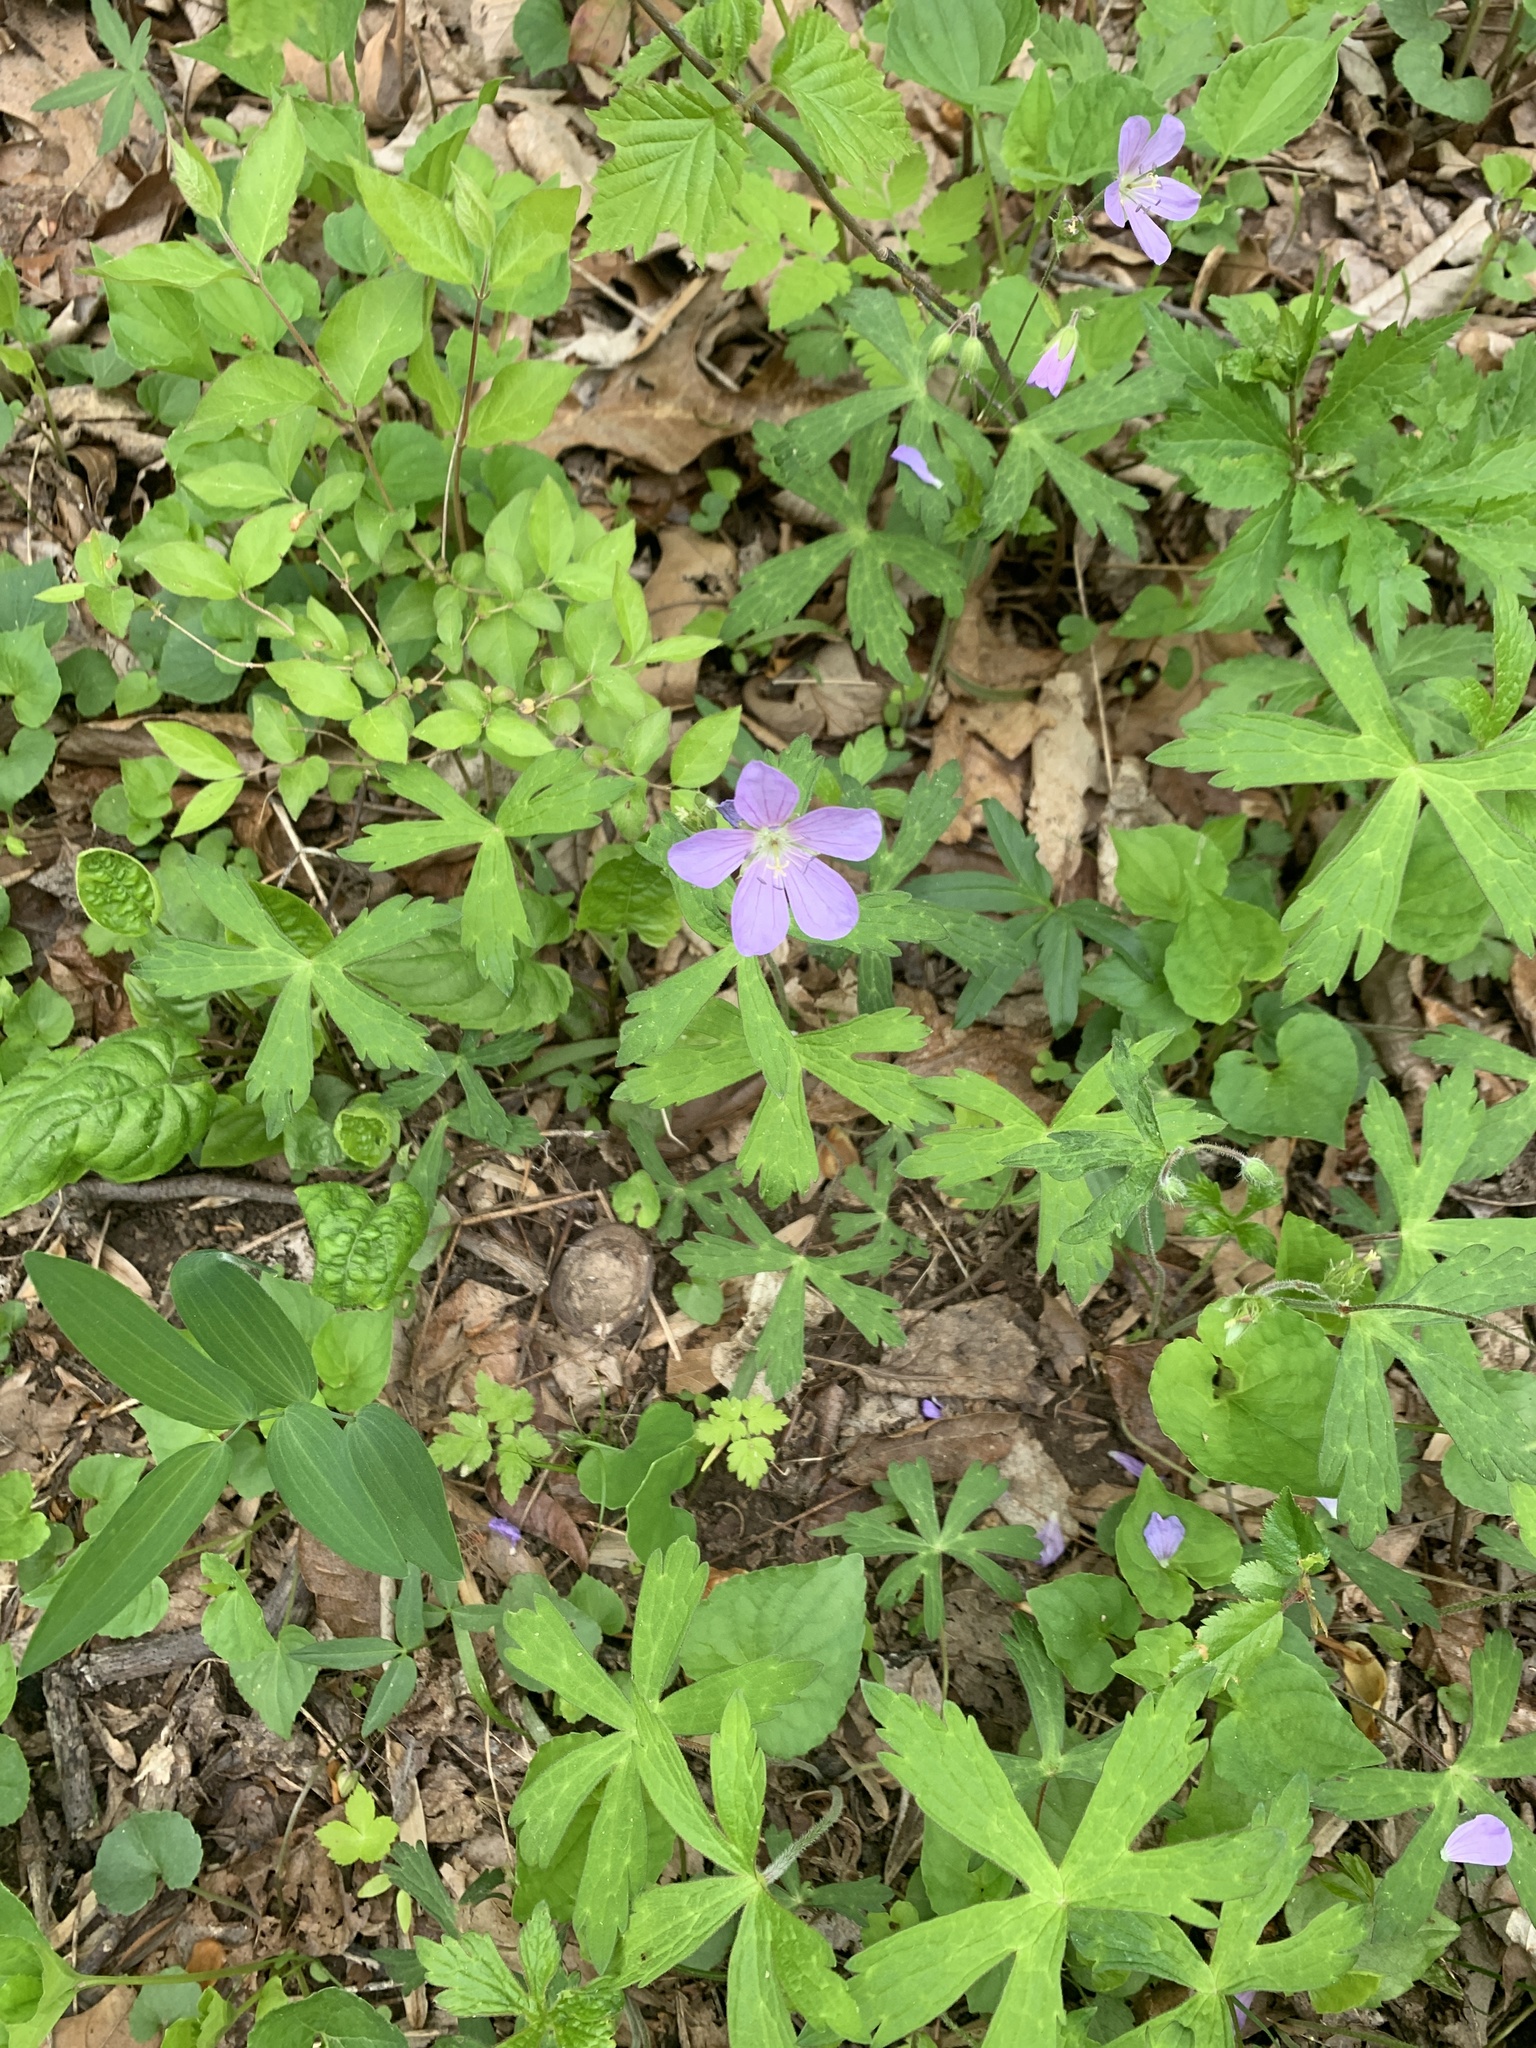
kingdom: Plantae
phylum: Tracheophyta
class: Magnoliopsida
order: Geraniales
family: Geraniaceae
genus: Geranium
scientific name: Geranium maculatum
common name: Spotted geranium
